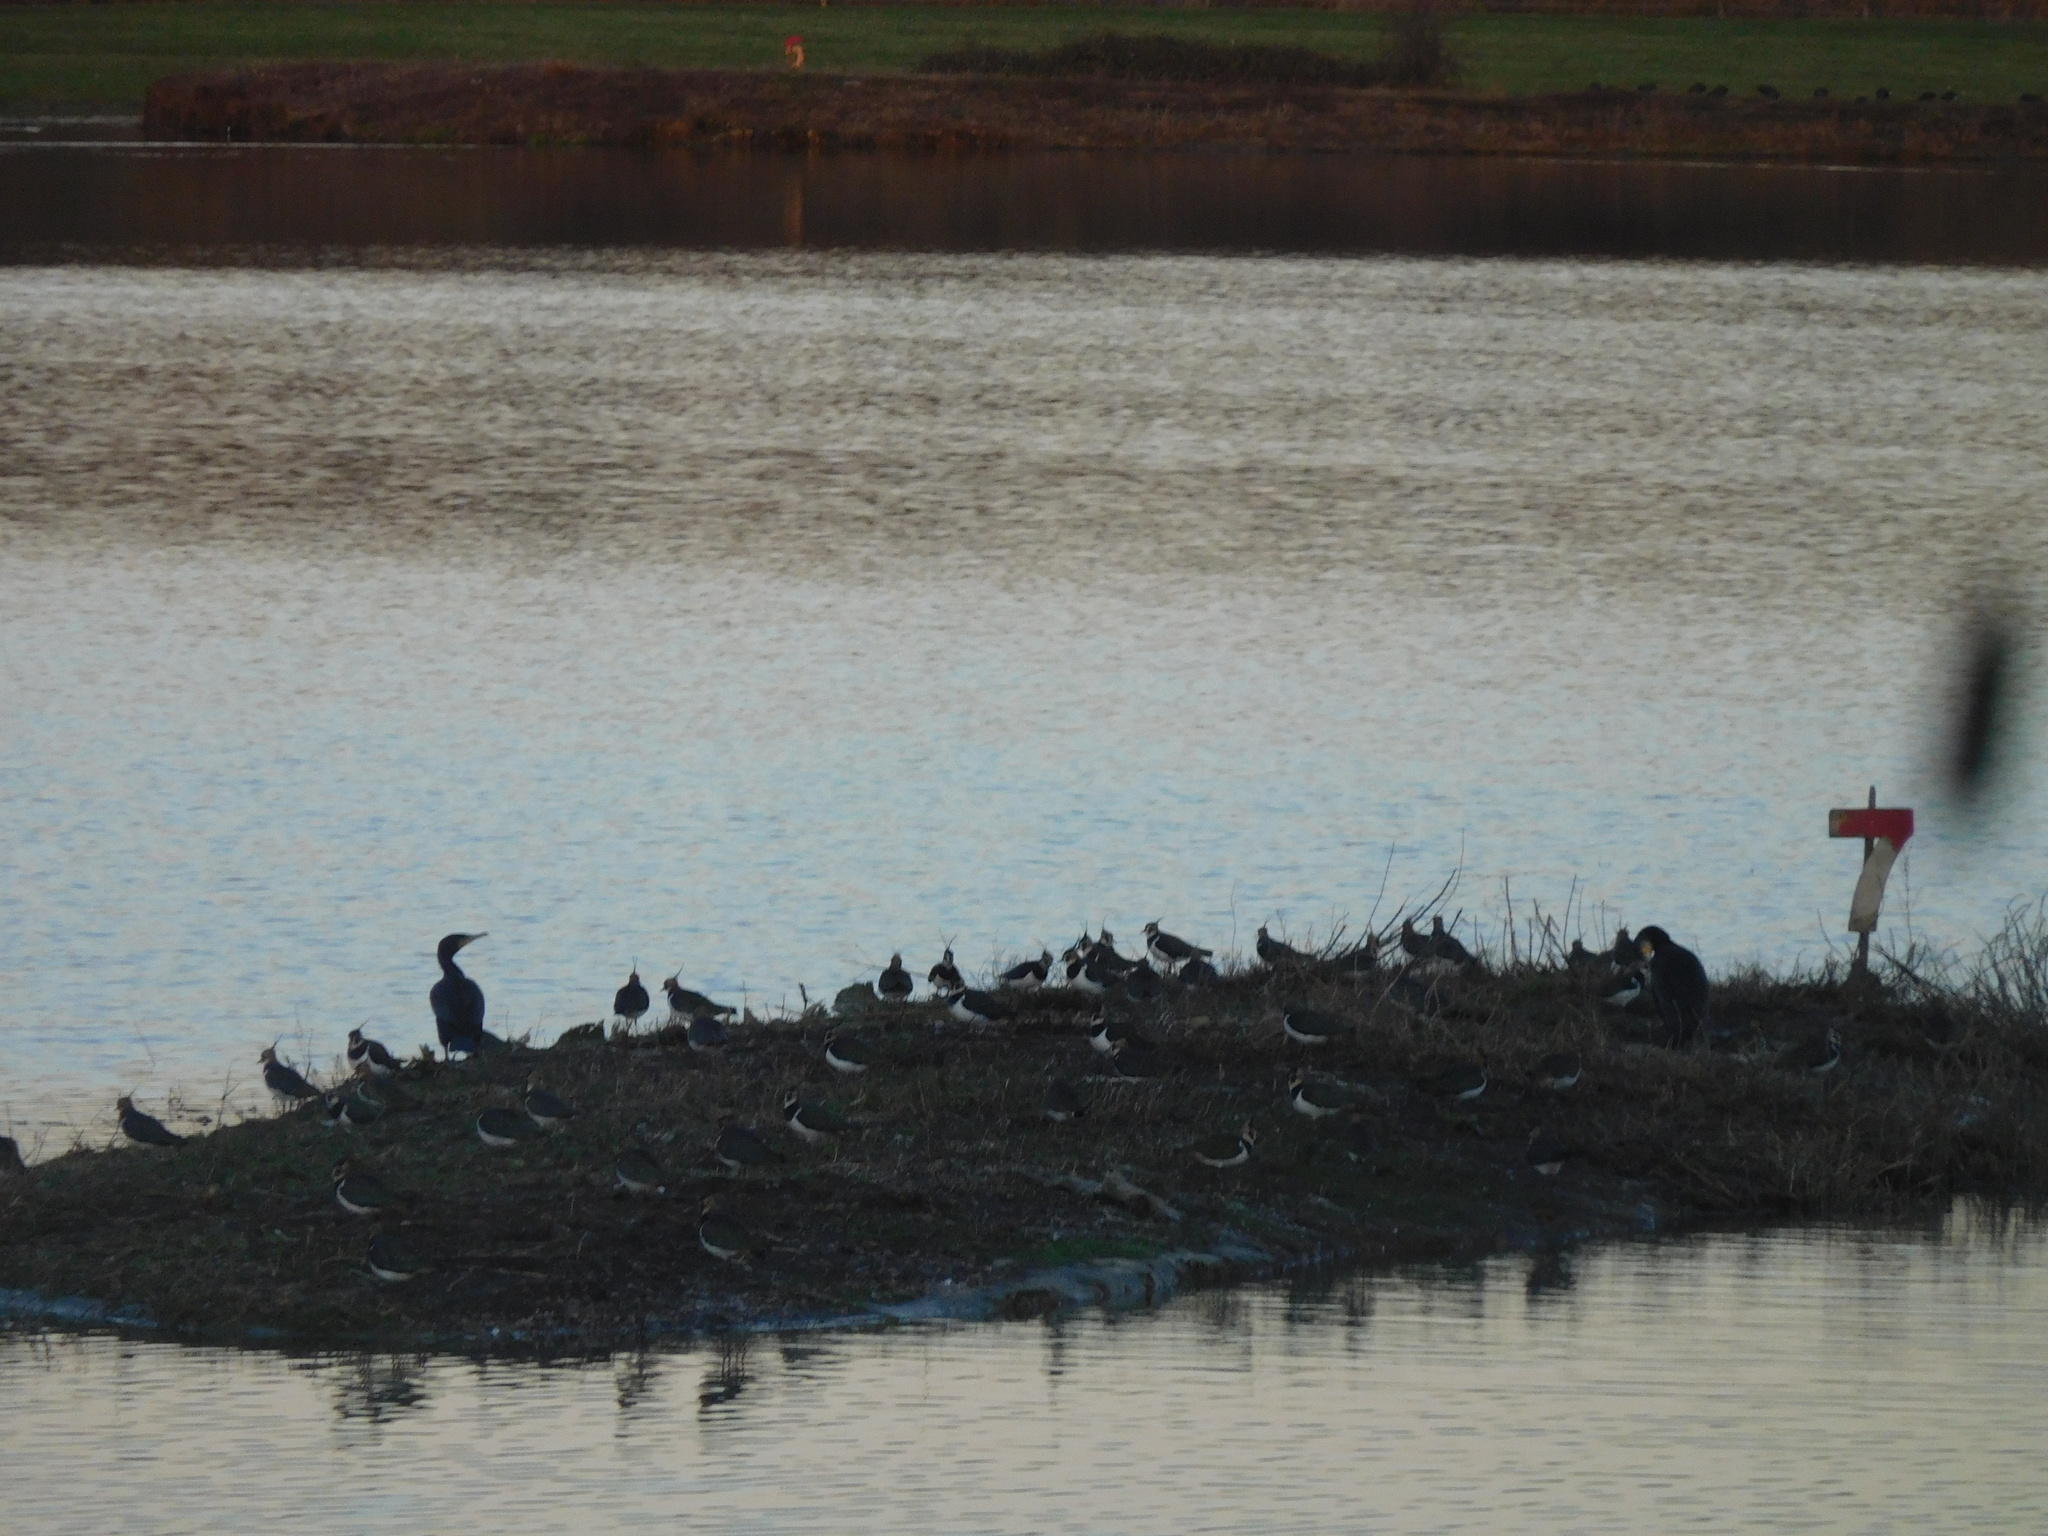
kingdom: Animalia
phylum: Chordata
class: Aves
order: Charadriiformes
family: Charadriidae
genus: Vanellus
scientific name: Vanellus vanellus
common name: Northern lapwing
